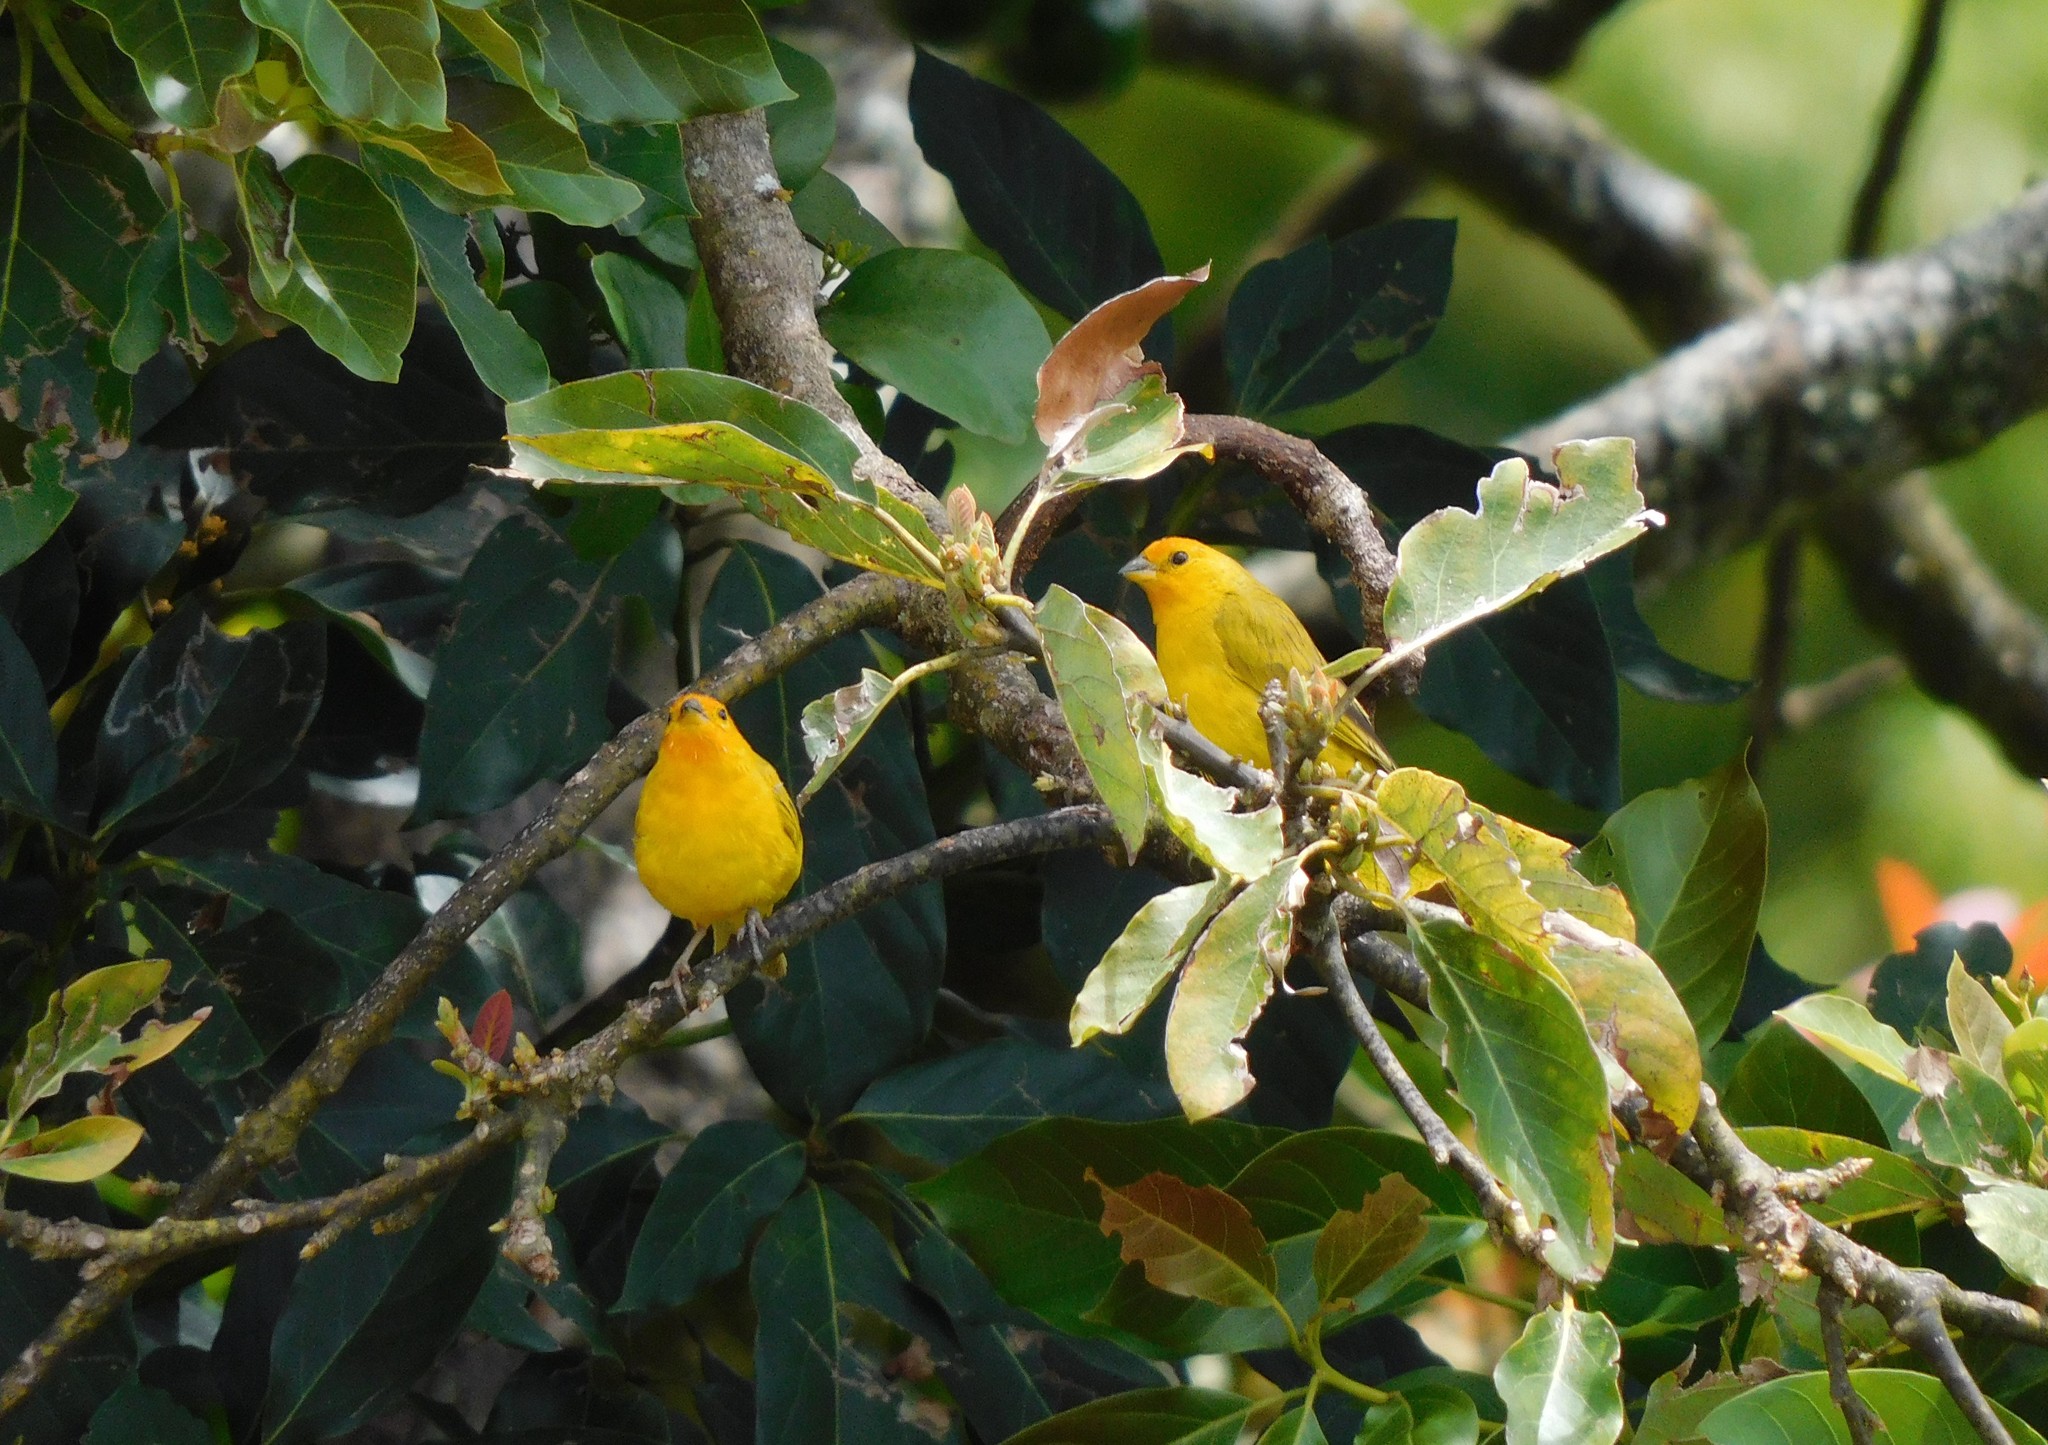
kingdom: Animalia
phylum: Chordata
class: Aves
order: Passeriformes
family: Thraupidae
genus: Sicalis
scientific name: Sicalis flaveola
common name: Saffron finch
